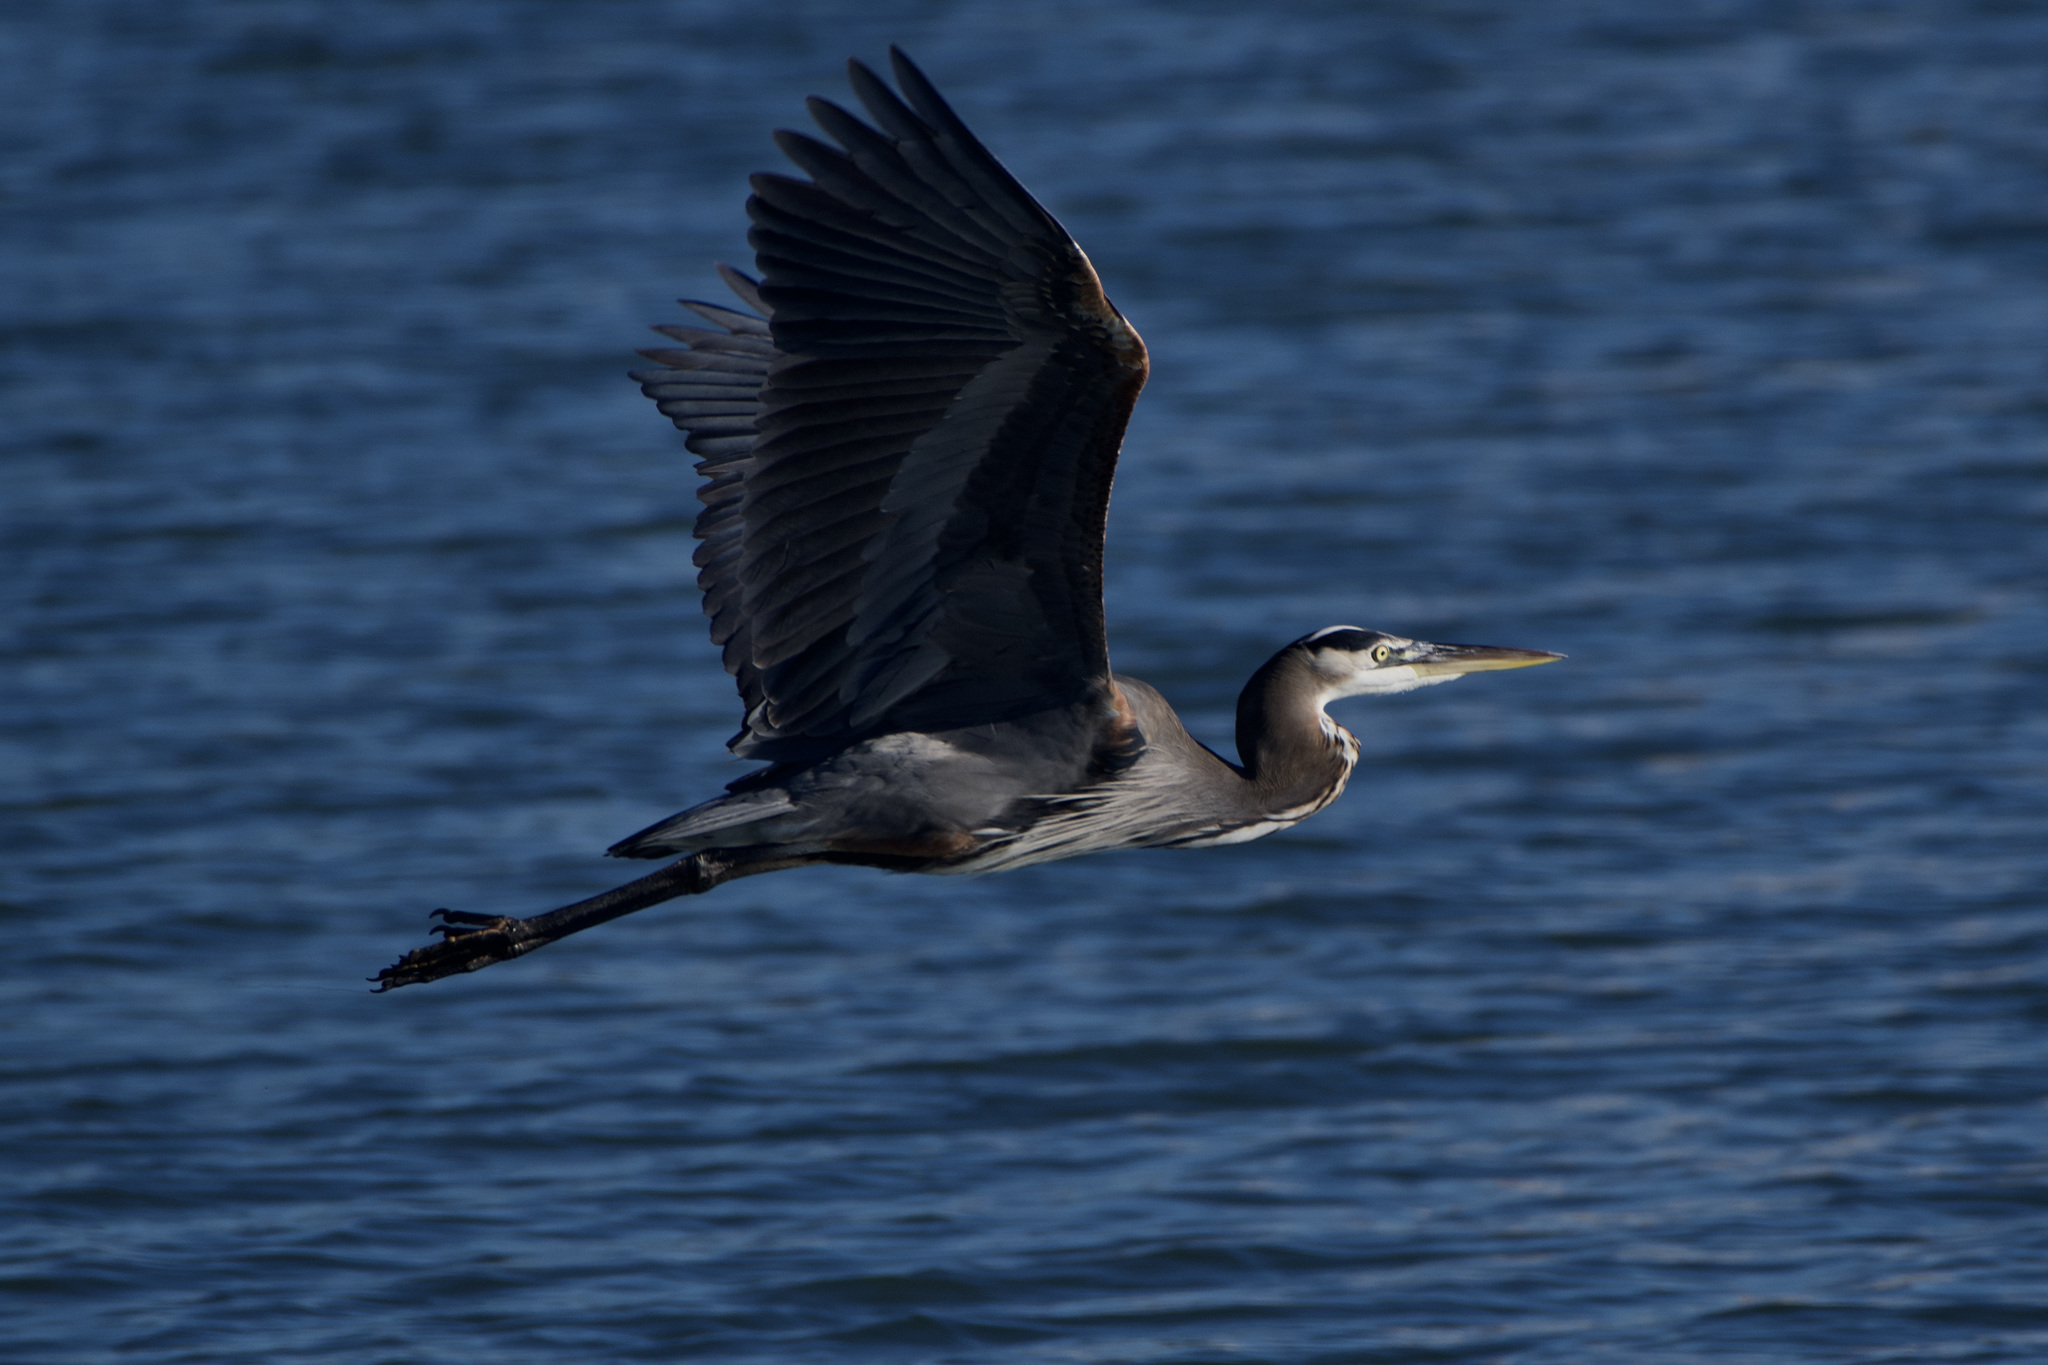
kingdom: Animalia
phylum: Chordata
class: Aves
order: Pelecaniformes
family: Ardeidae
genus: Ardea
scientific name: Ardea herodias
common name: Great blue heron
